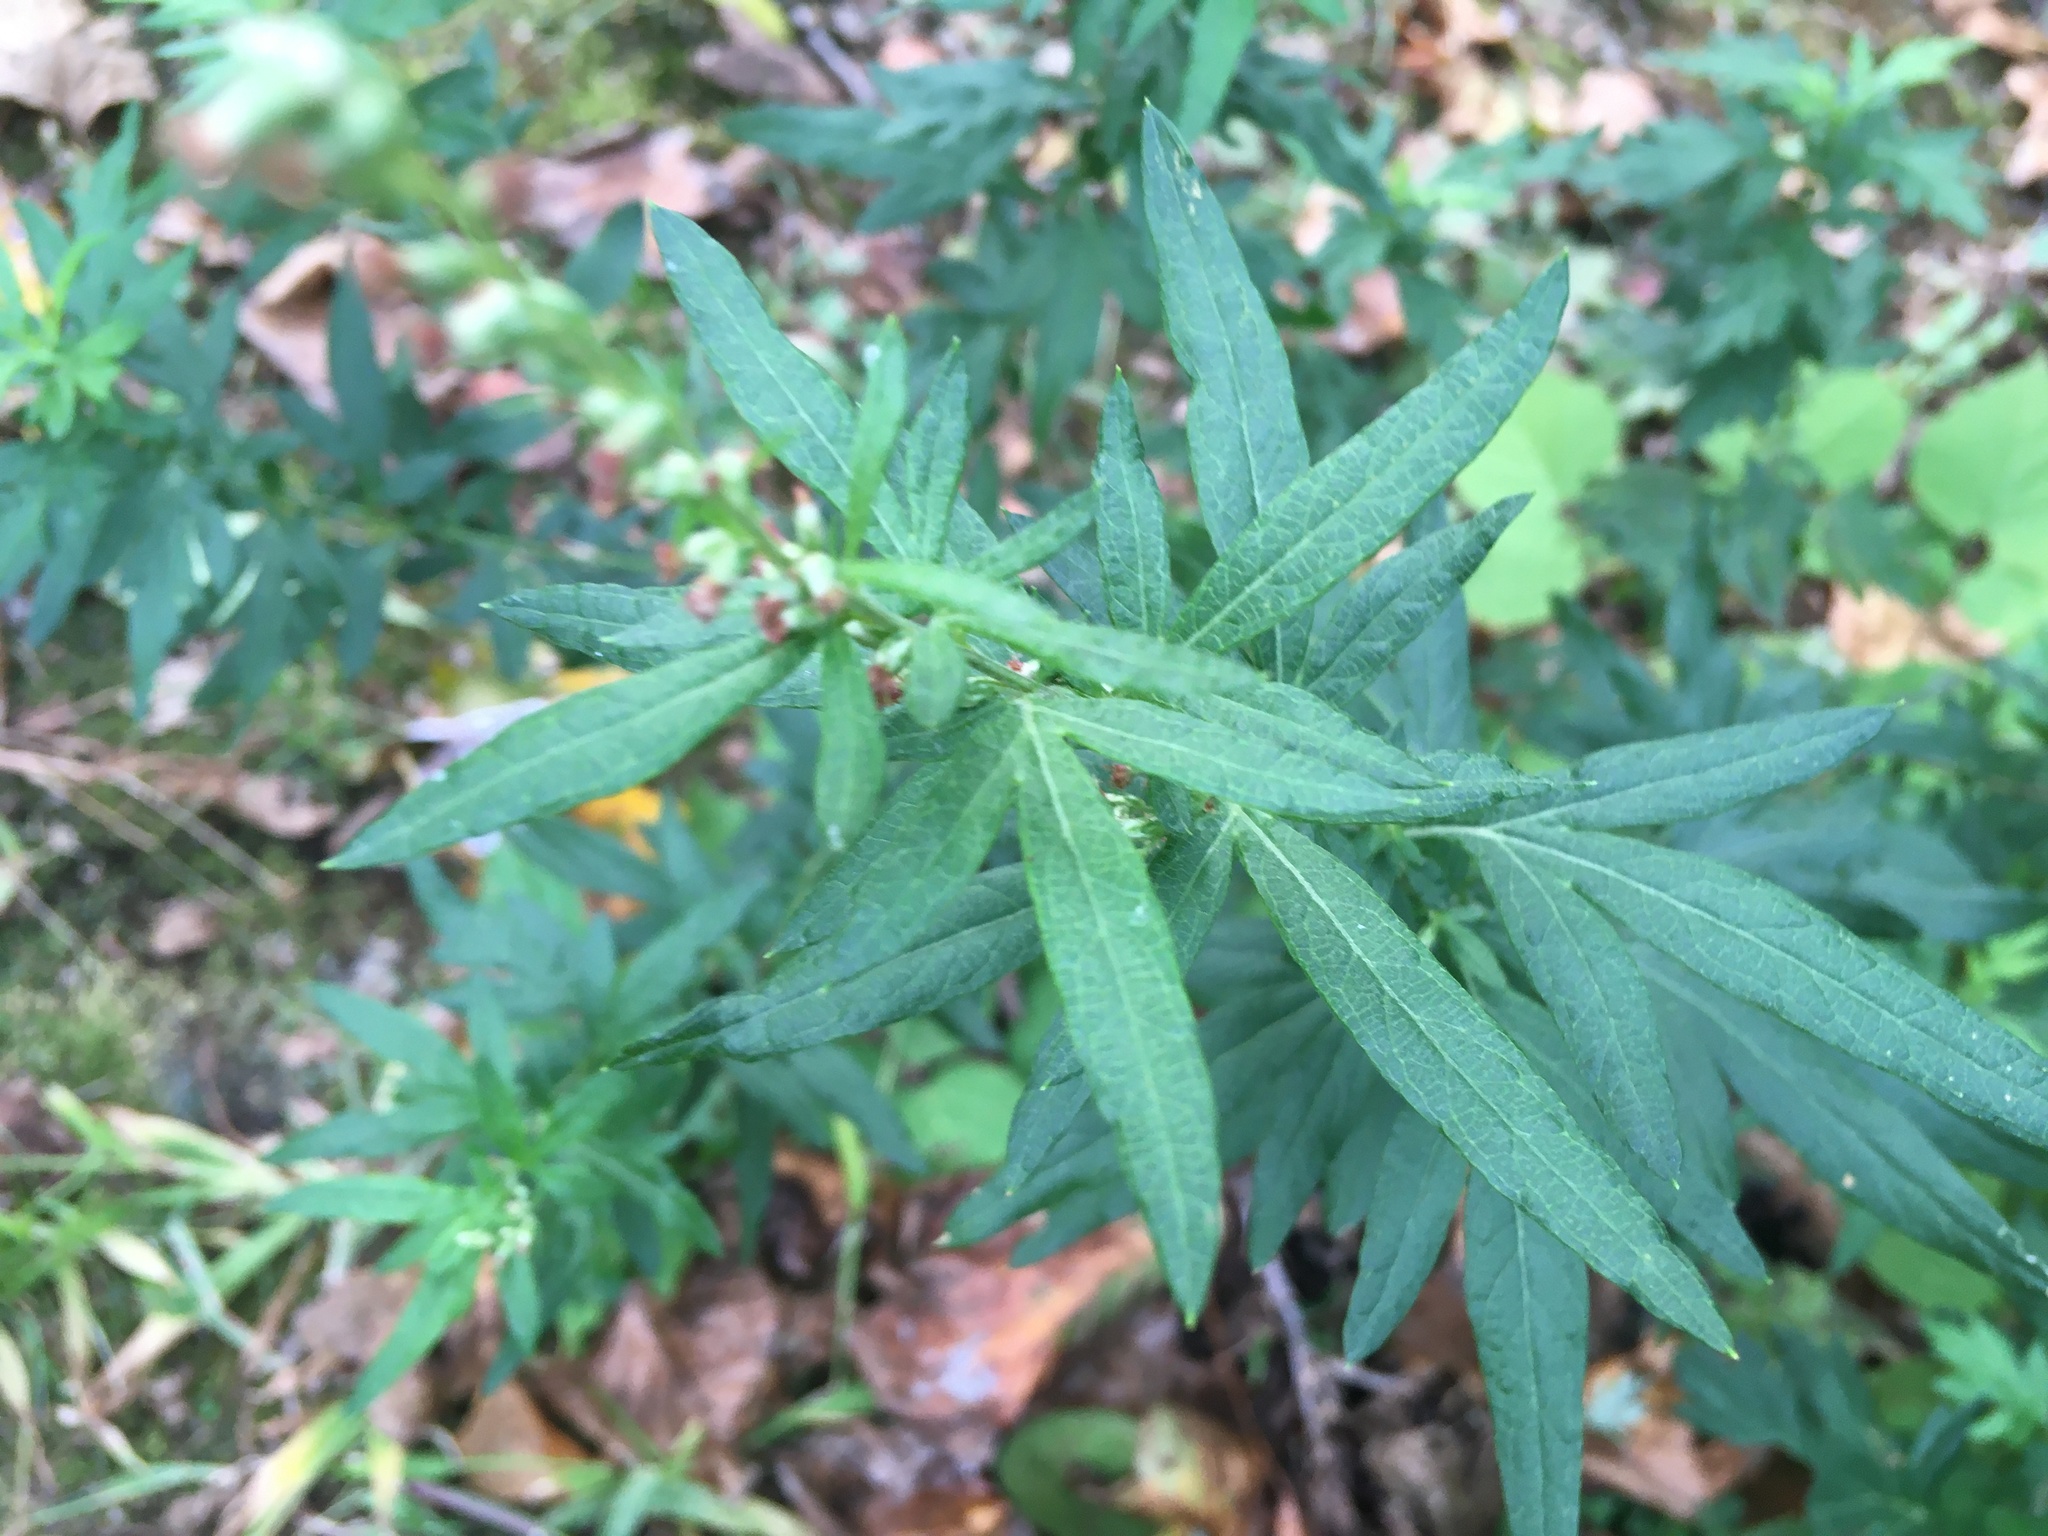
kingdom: Plantae
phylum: Tracheophyta
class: Magnoliopsida
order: Asterales
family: Asteraceae
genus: Artemisia
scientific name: Artemisia vulgaris
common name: Mugwort
